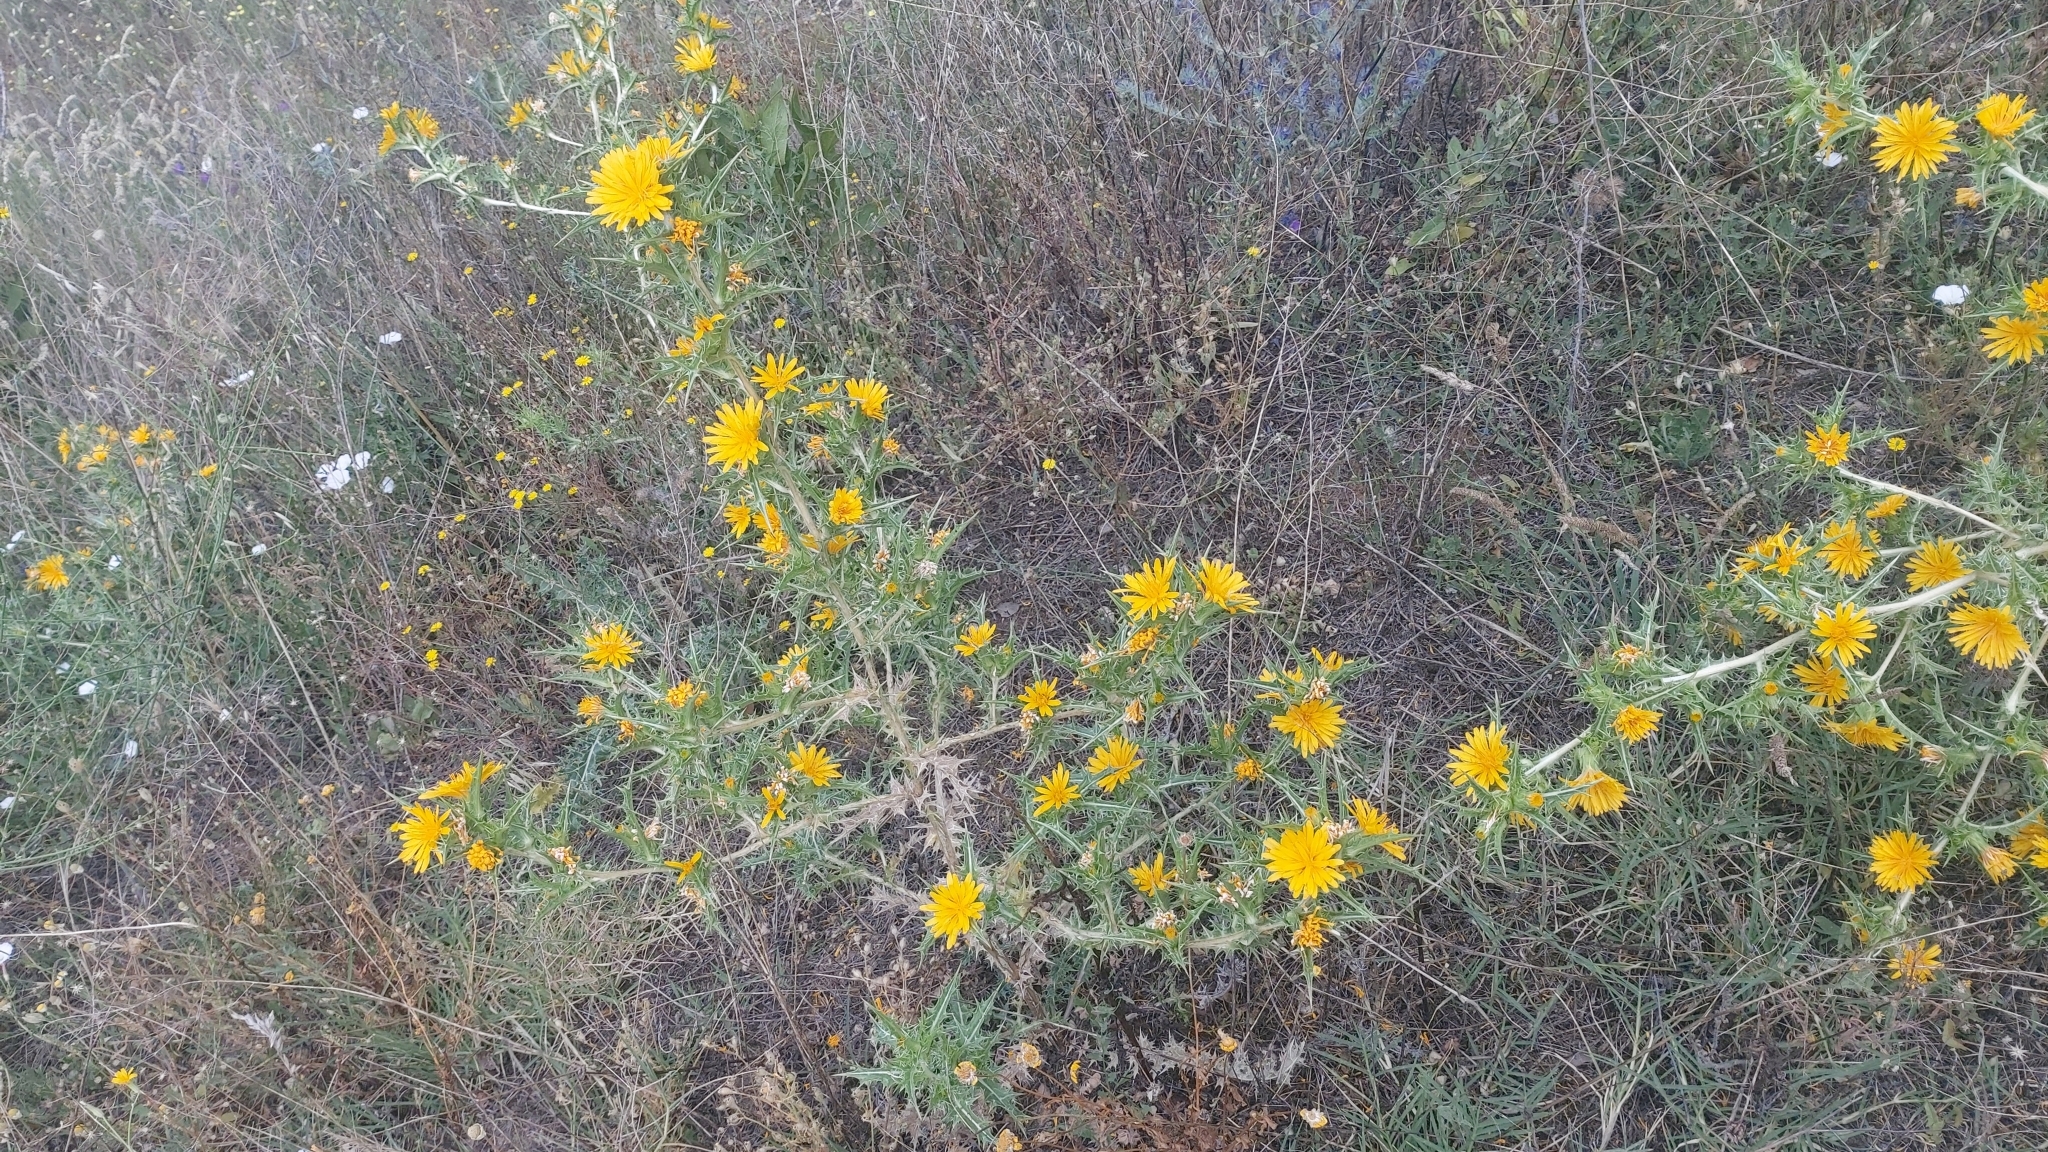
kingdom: Plantae
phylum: Tracheophyta
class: Magnoliopsida
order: Asterales
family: Asteraceae
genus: Scolymus
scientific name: Scolymus hispanicus
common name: Golden thistle
